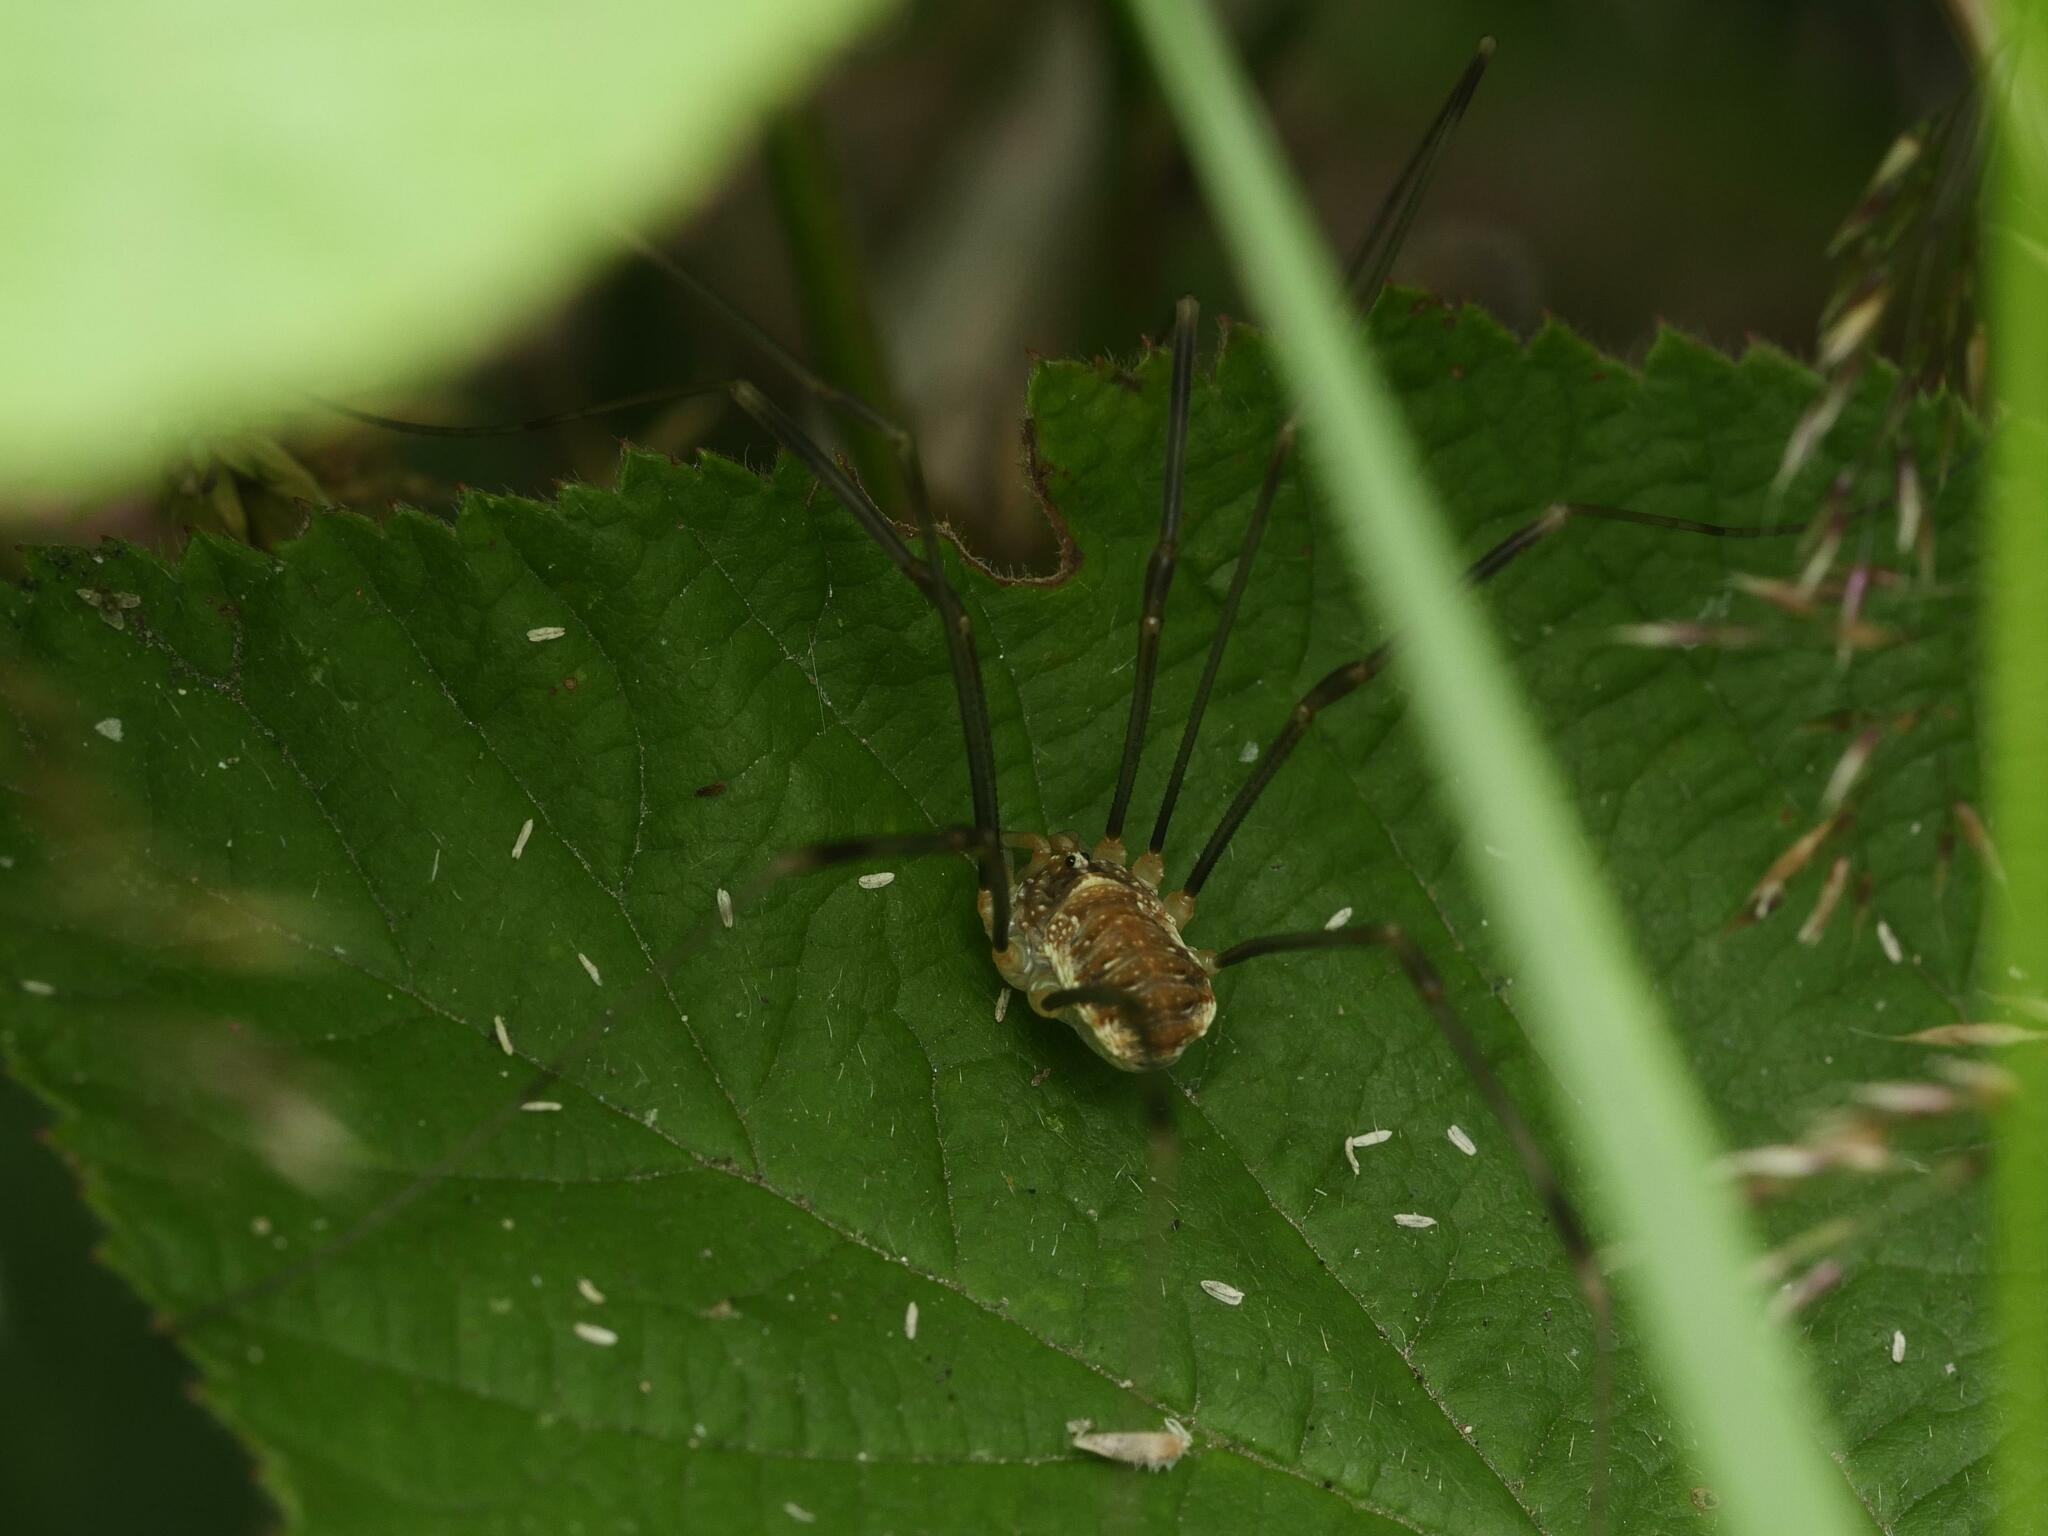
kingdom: Animalia
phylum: Arthropoda
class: Arachnida
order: Opiliones
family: Phalangiidae
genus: Opilio
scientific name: Opilio canestrinii
